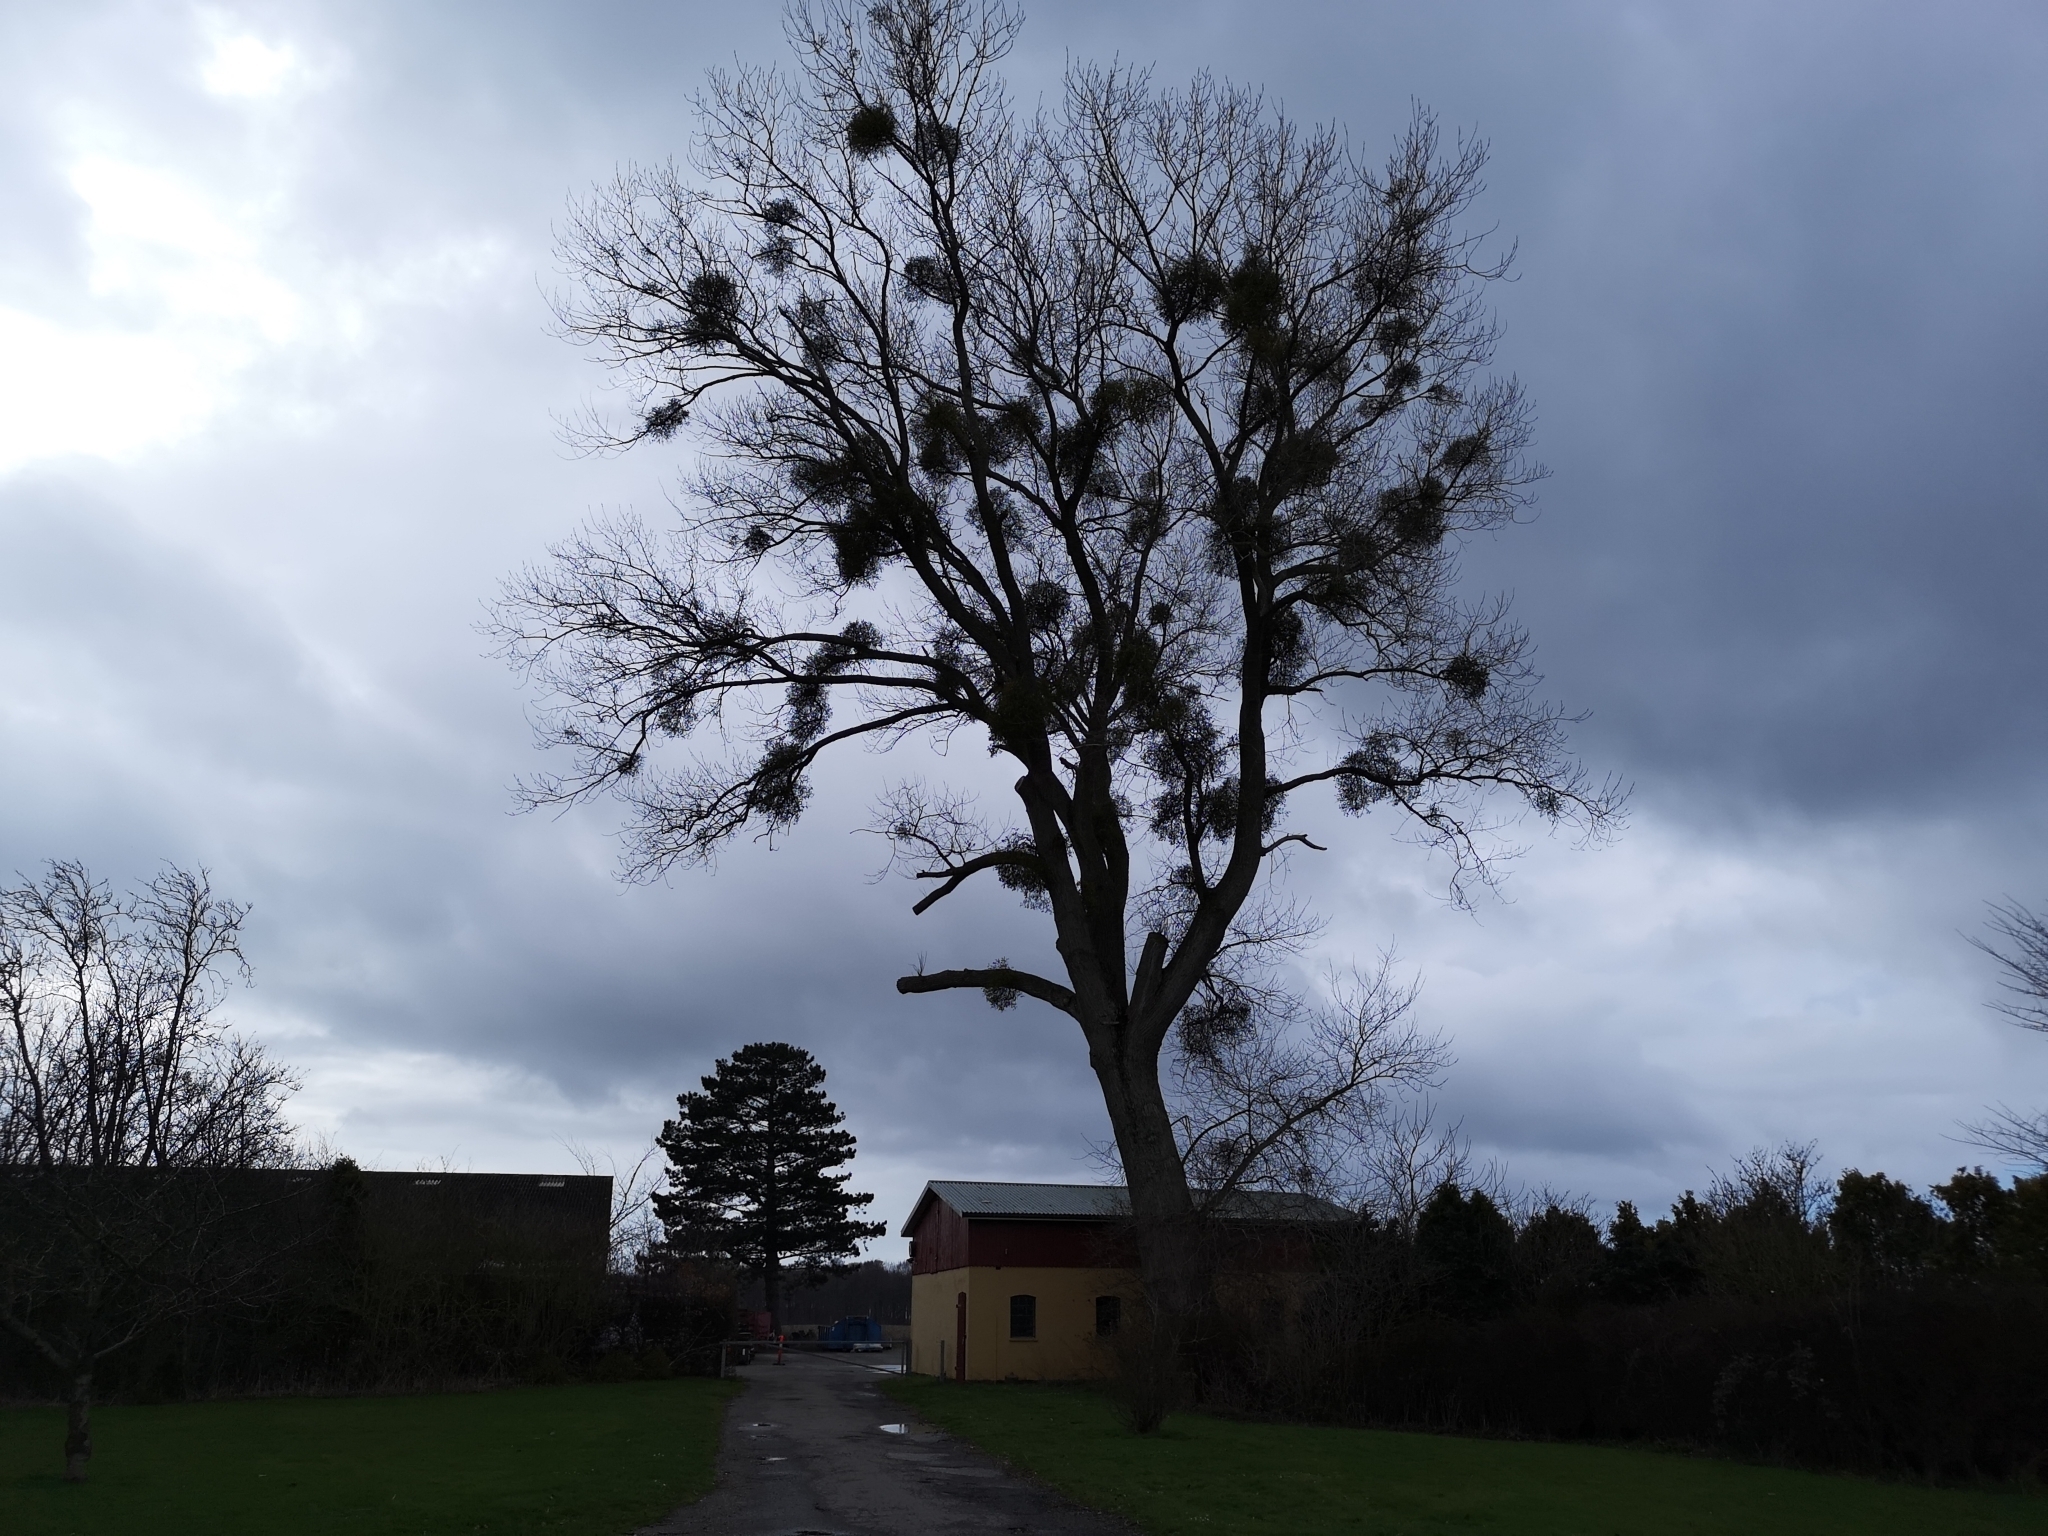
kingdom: Plantae
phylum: Tracheophyta
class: Magnoliopsida
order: Santalales
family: Viscaceae
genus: Viscum
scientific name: Viscum album
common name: Mistletoe
